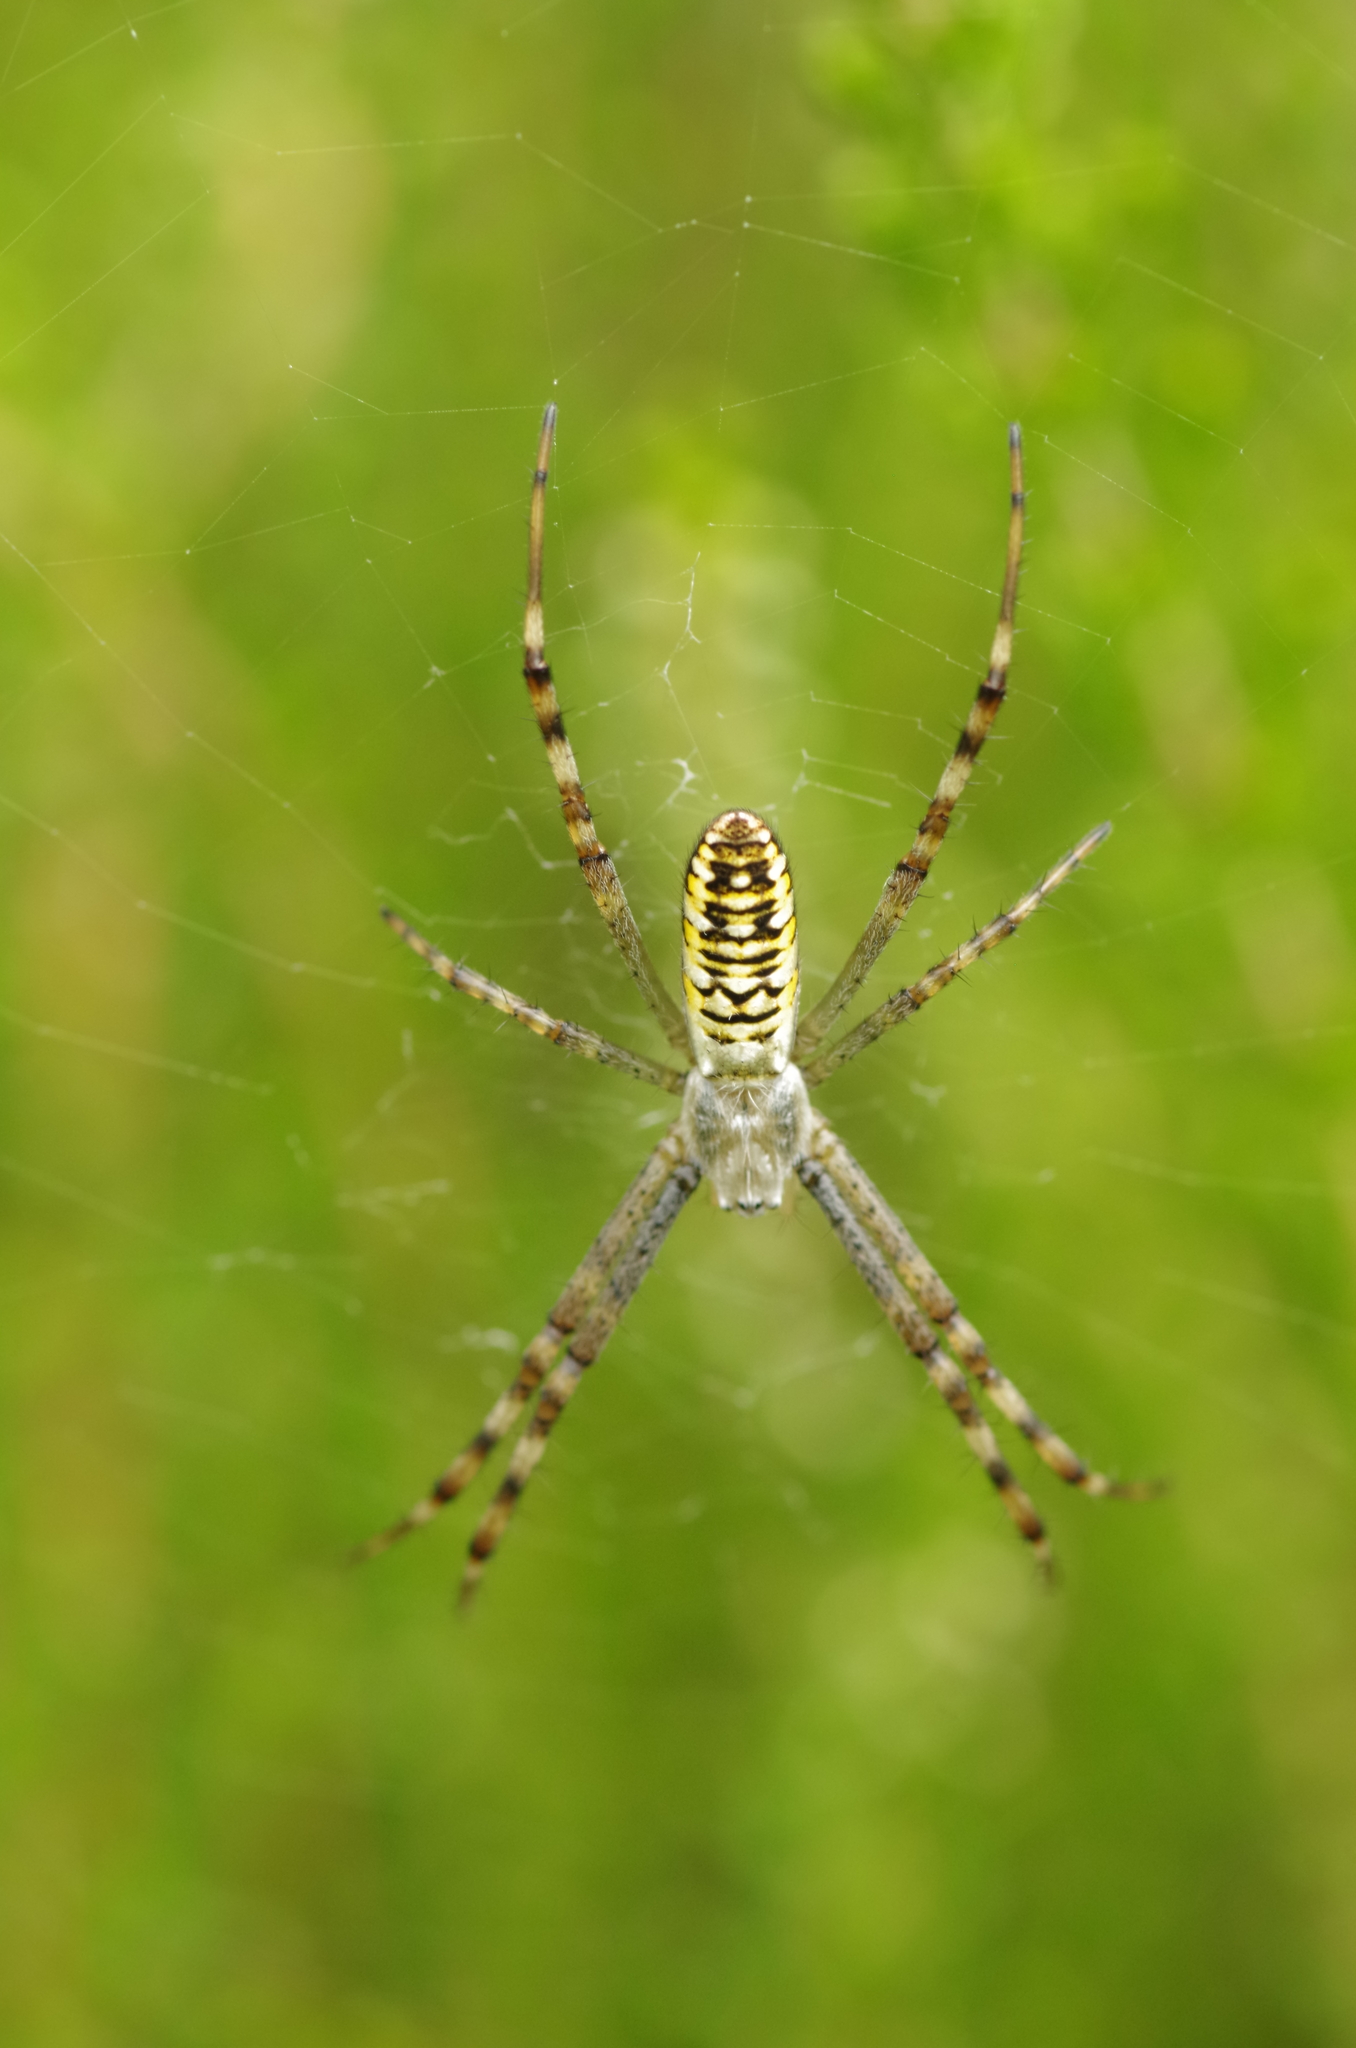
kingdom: Animalia
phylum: Arthropoda
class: Arachnida
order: Araneae
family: Araneidae
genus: Argiope
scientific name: Argiope bruennichi
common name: Wasp spider
